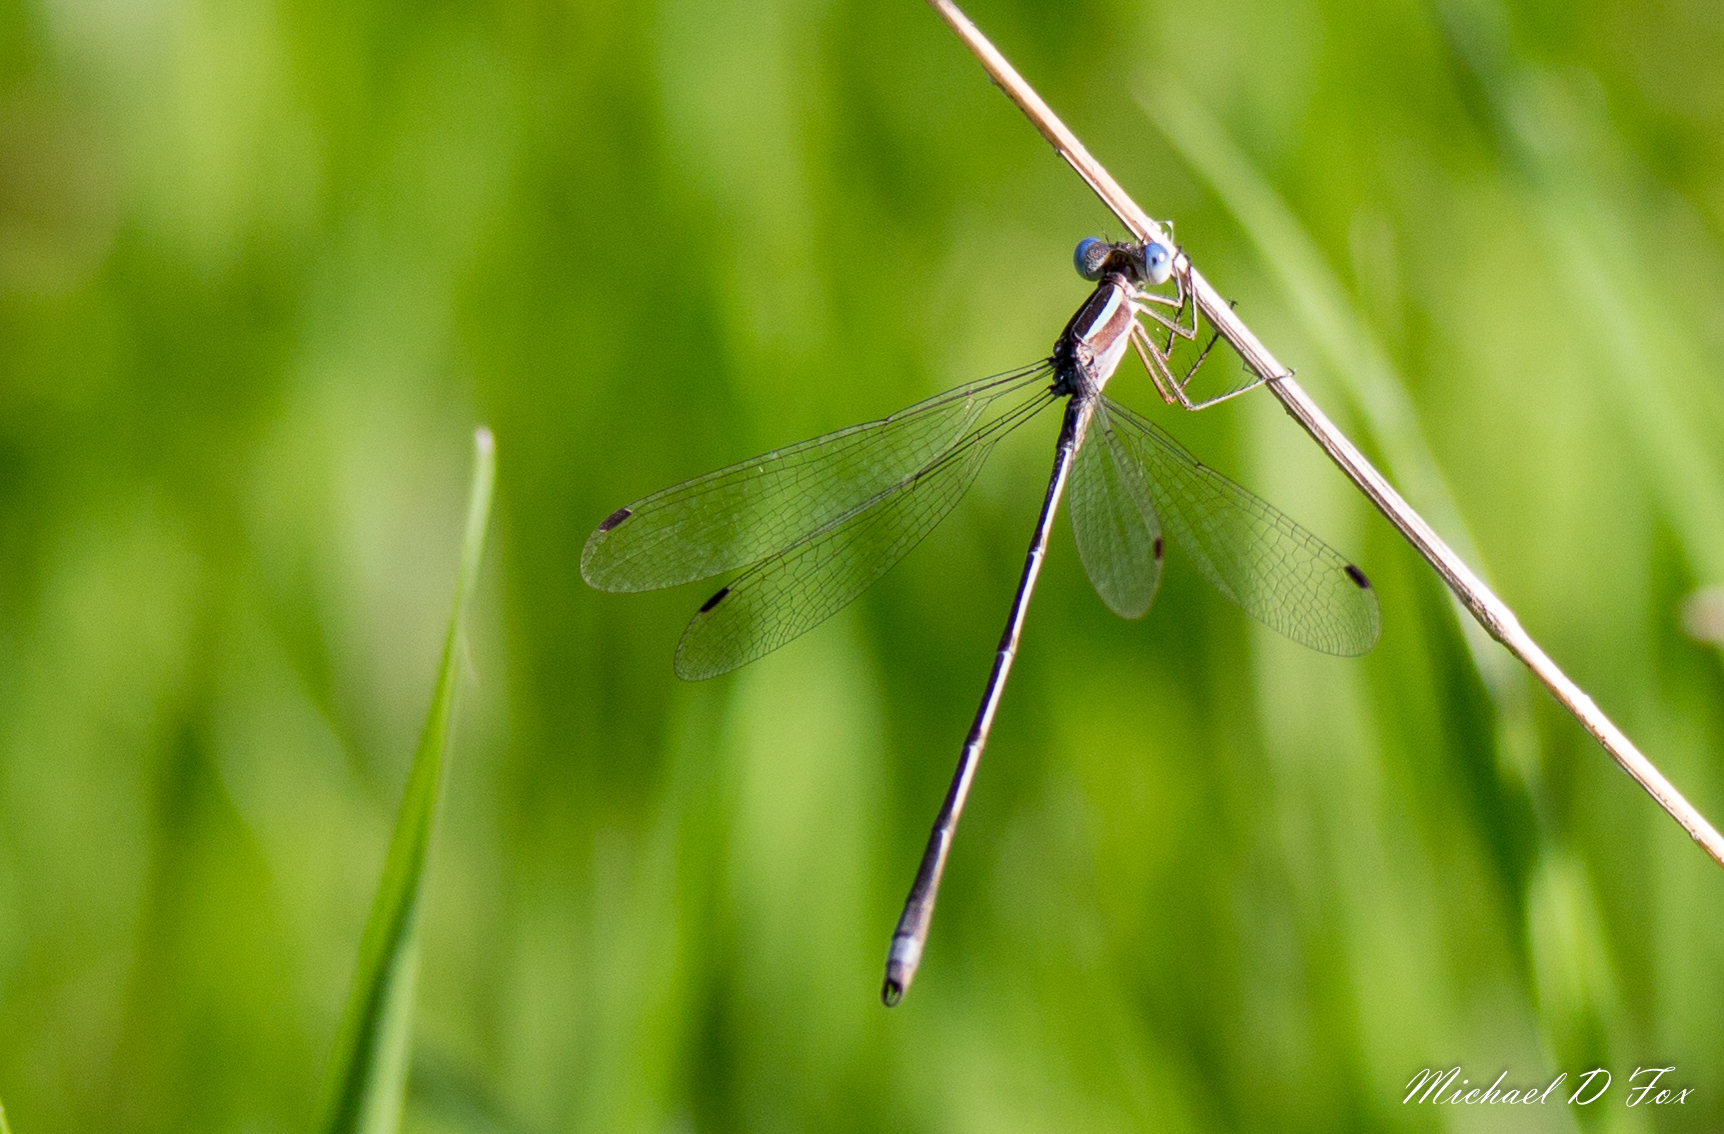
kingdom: Animalia
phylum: Arthropoda
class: Insecta
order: Odonata
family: Lestidae
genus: Lestes
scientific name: Lestes alacer
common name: Plateau spreadwing
